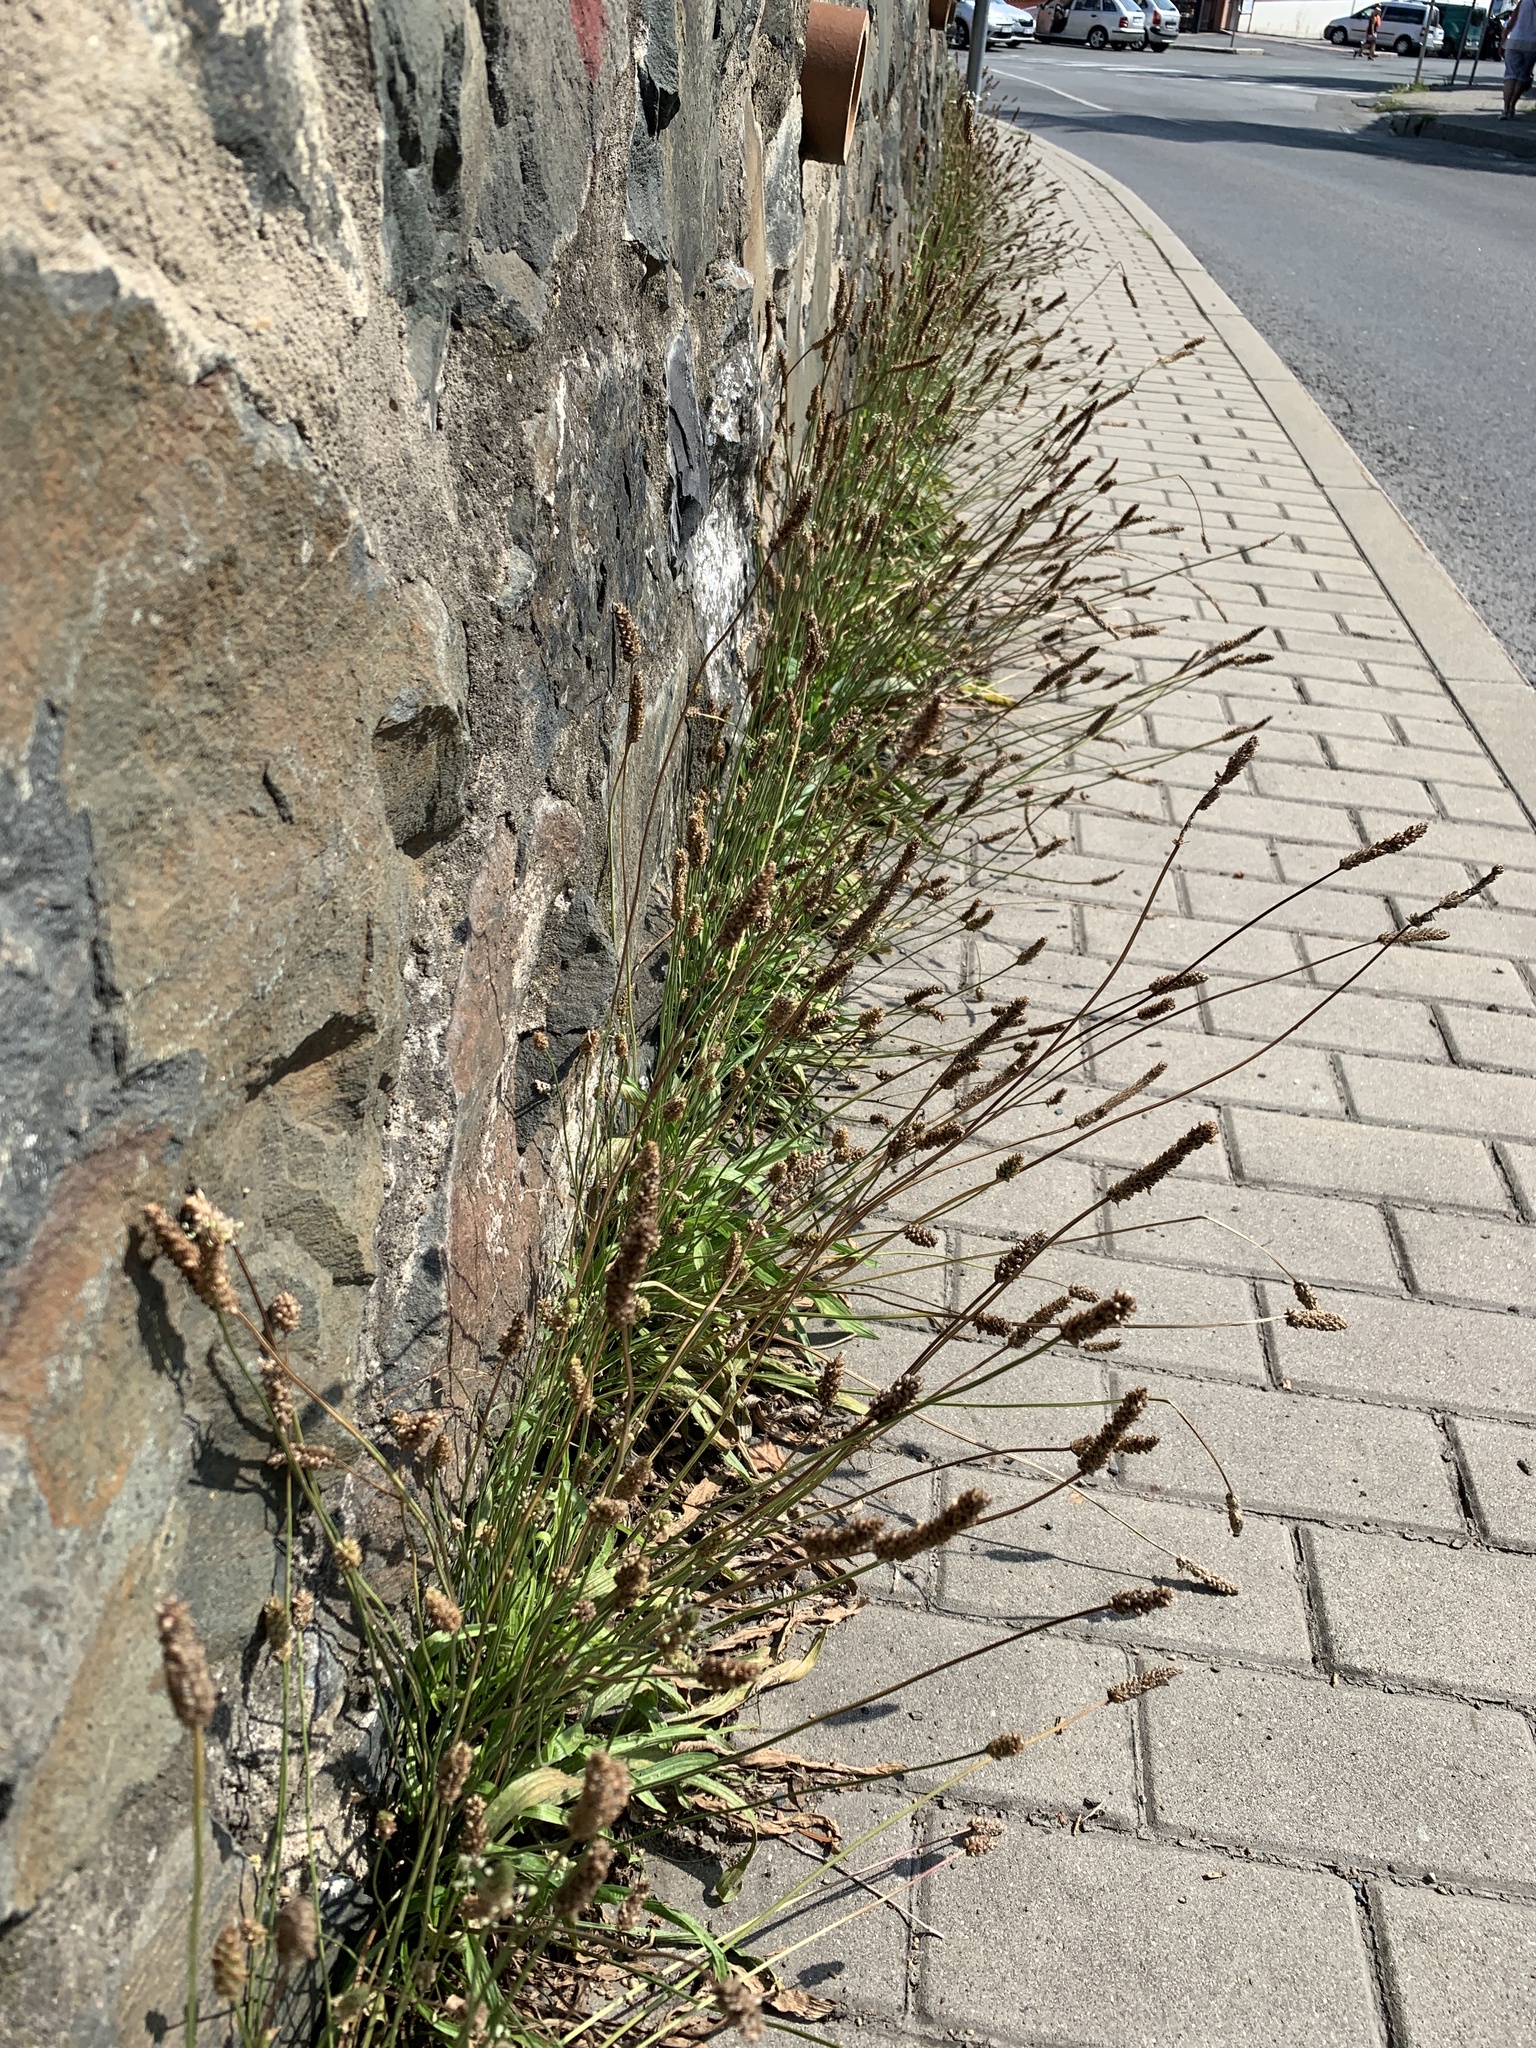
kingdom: Plantae
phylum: Tracheophyta
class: Magnoliopsida
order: Lamiales
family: Plantaginaceae
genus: Plantago
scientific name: Plantago lanceolata
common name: Ribwort plantain
